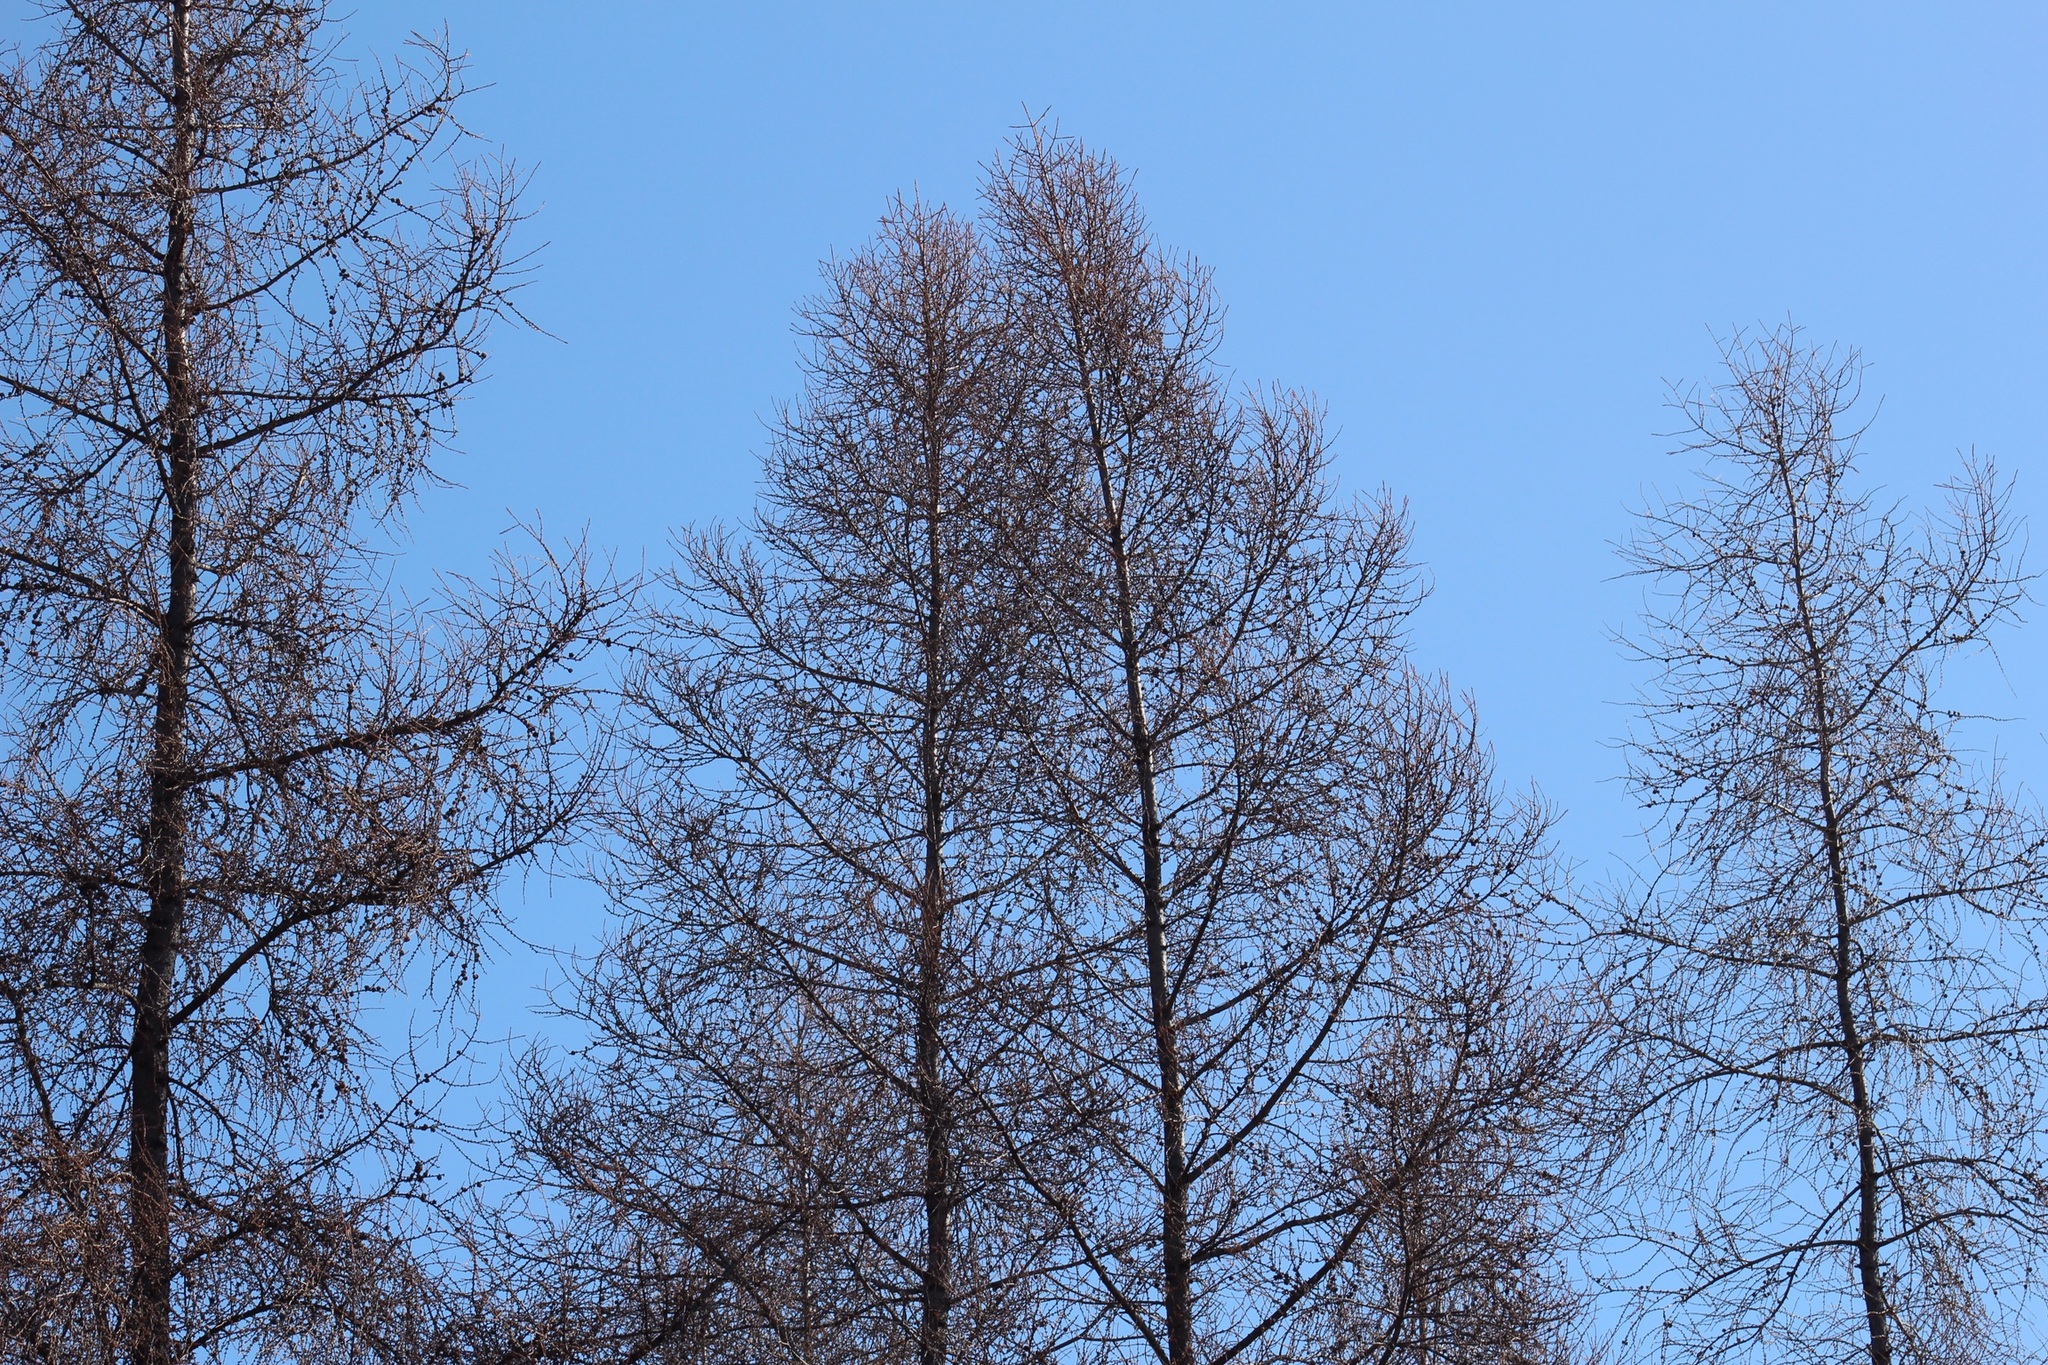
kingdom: Plantae
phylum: Tracheophyta
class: Pinopsida
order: Pinales
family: Pinaceae
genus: Larix
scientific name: Larix laricina
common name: American larch
